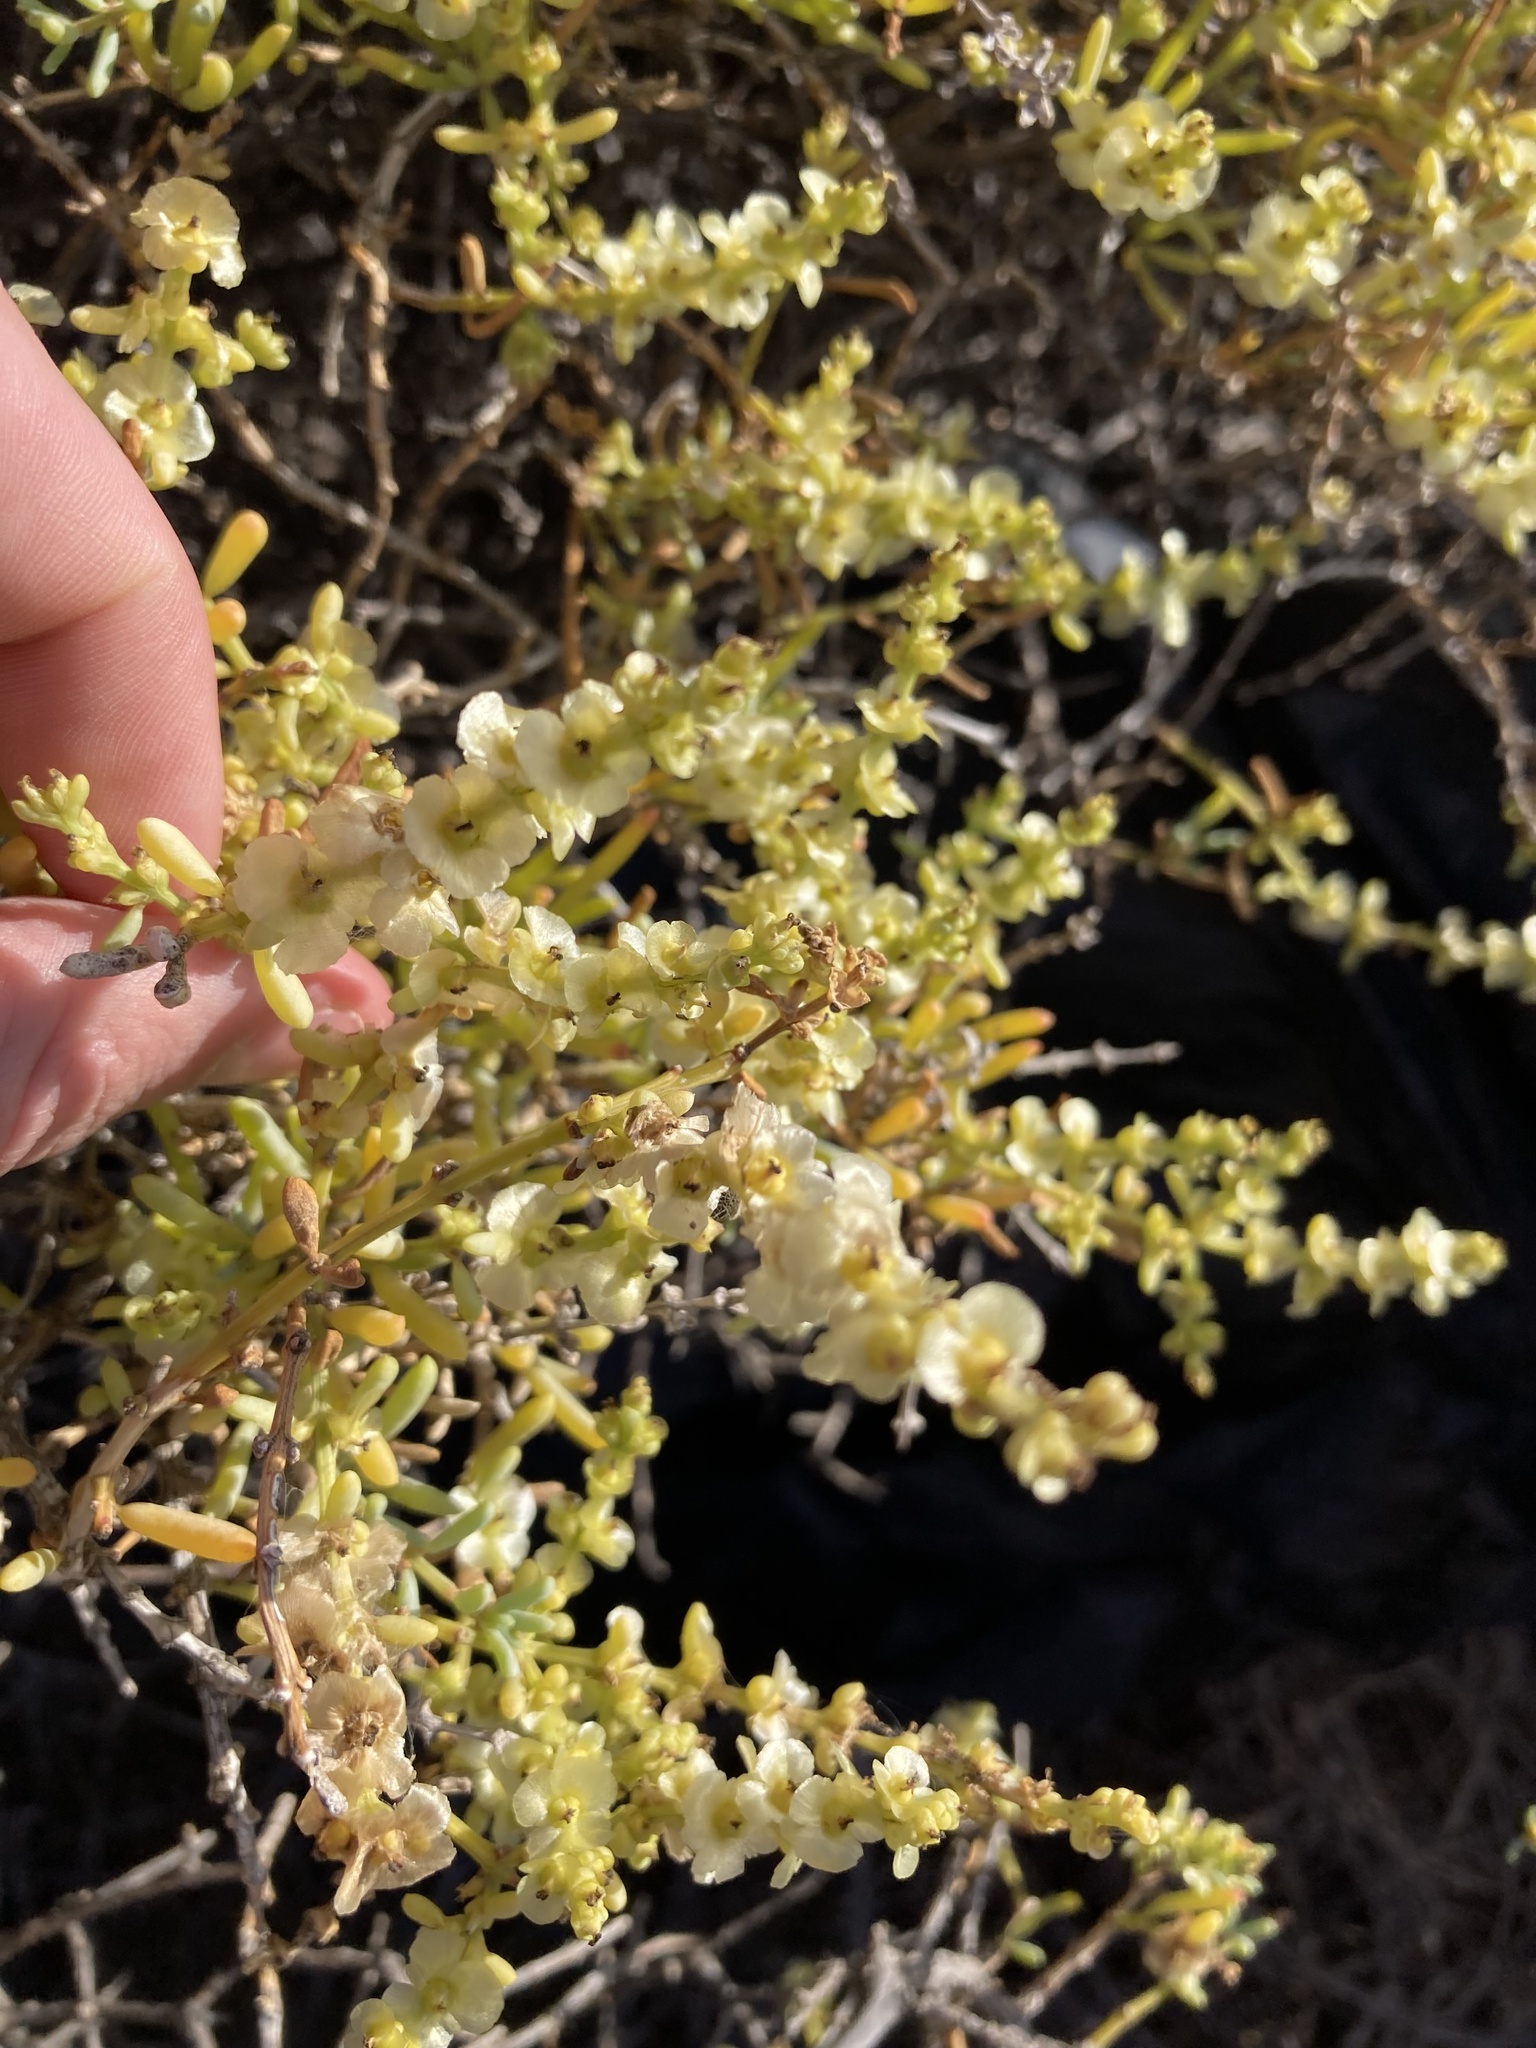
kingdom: Plantae
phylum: Tracheophyta
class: Magnoliopsida
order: Caryophyllales
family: Amaranthaceae
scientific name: Amaranthaceae
